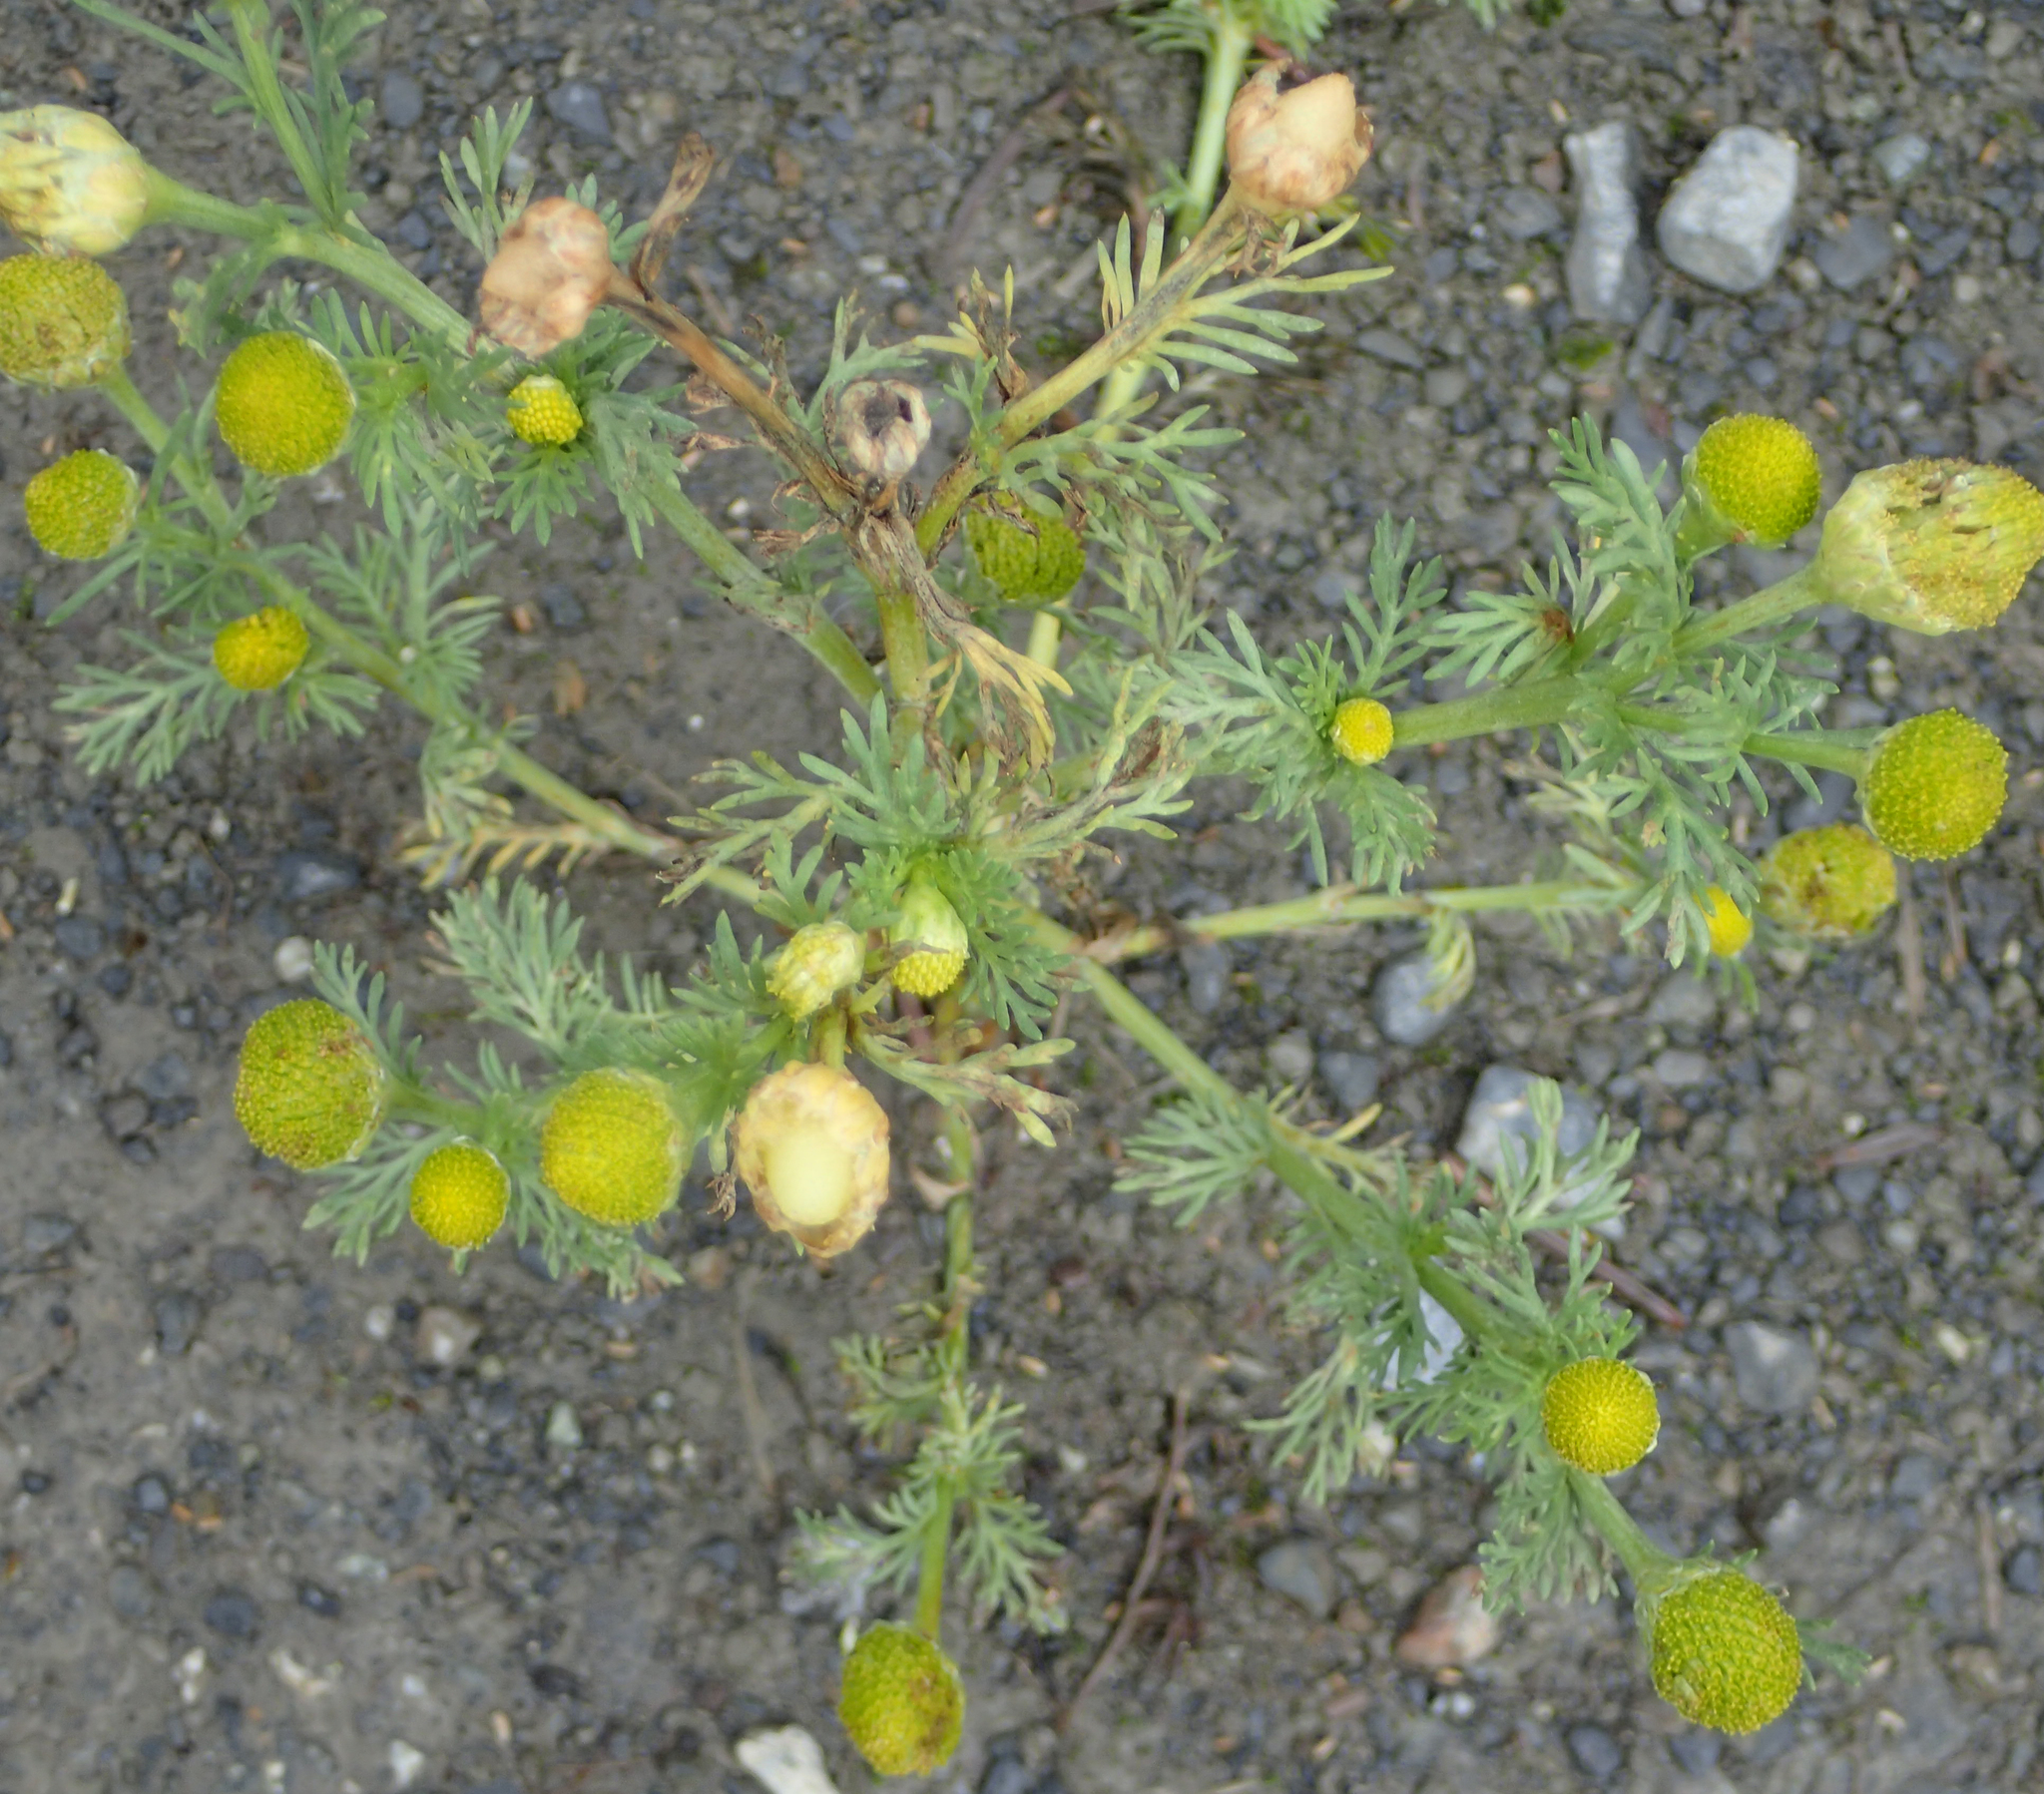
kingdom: Plantae
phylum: Tracheophyta
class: Magnoliopsida
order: Asterales
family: Asteraceae
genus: Matricaria
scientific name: Matricaria discoidea
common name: Disc mayweed
